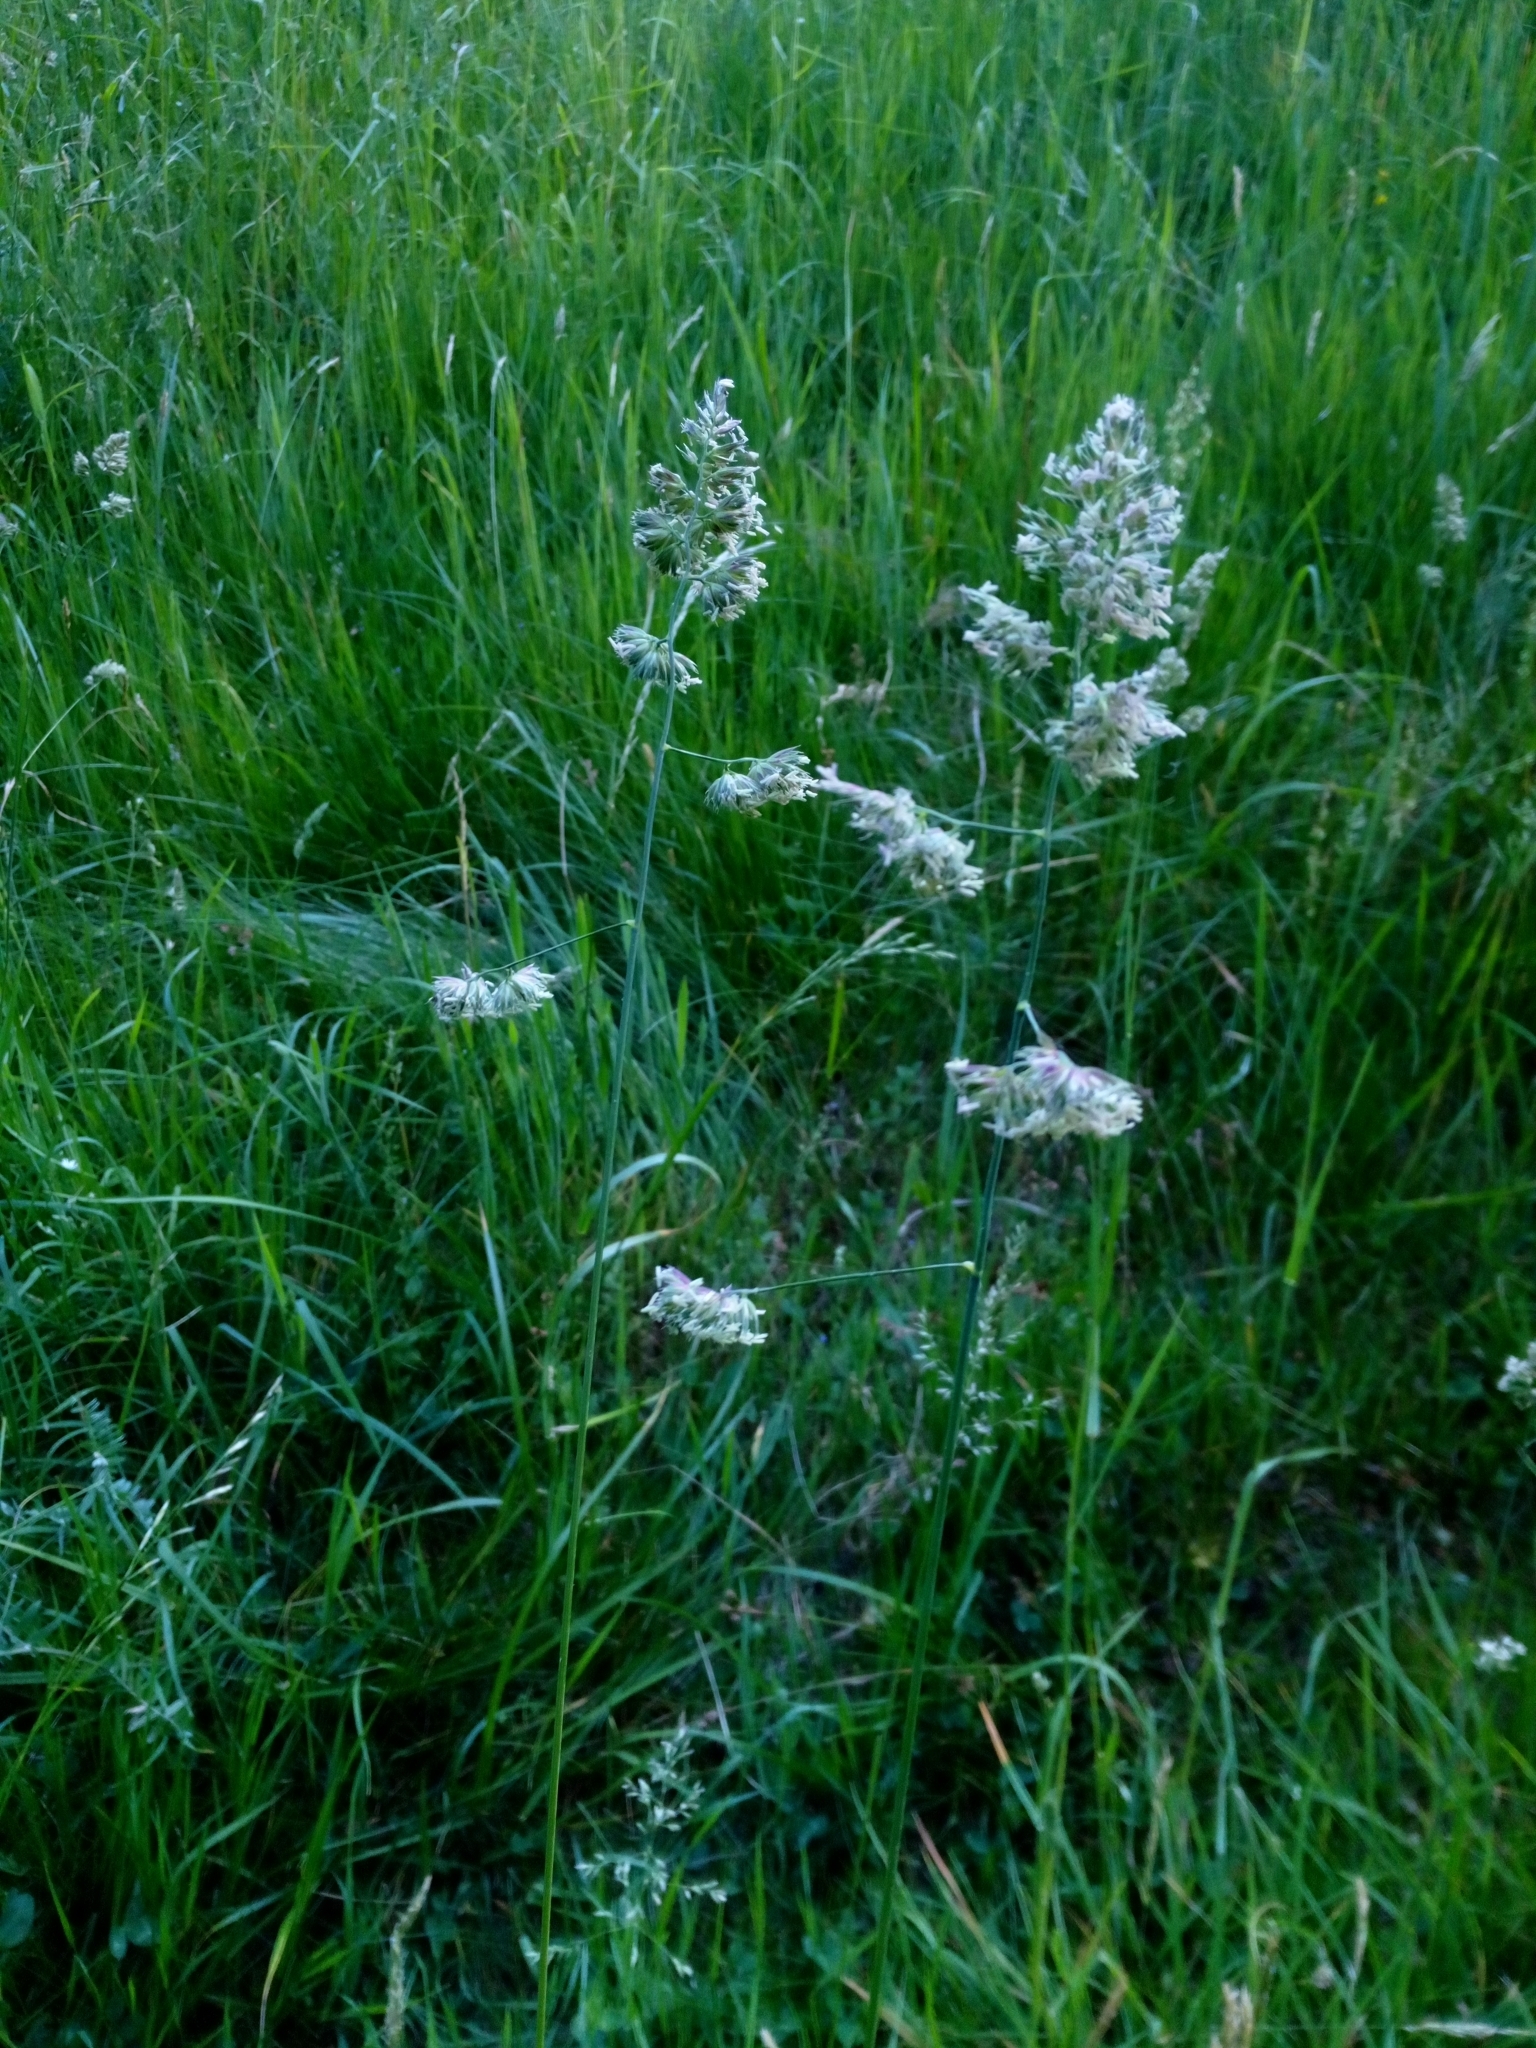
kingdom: Plantae
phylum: Tracheophyta
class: Liliopsida
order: Poales
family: Poaceae
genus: Dactylis
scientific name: Dactylis glomerata
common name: Orchardgrass
